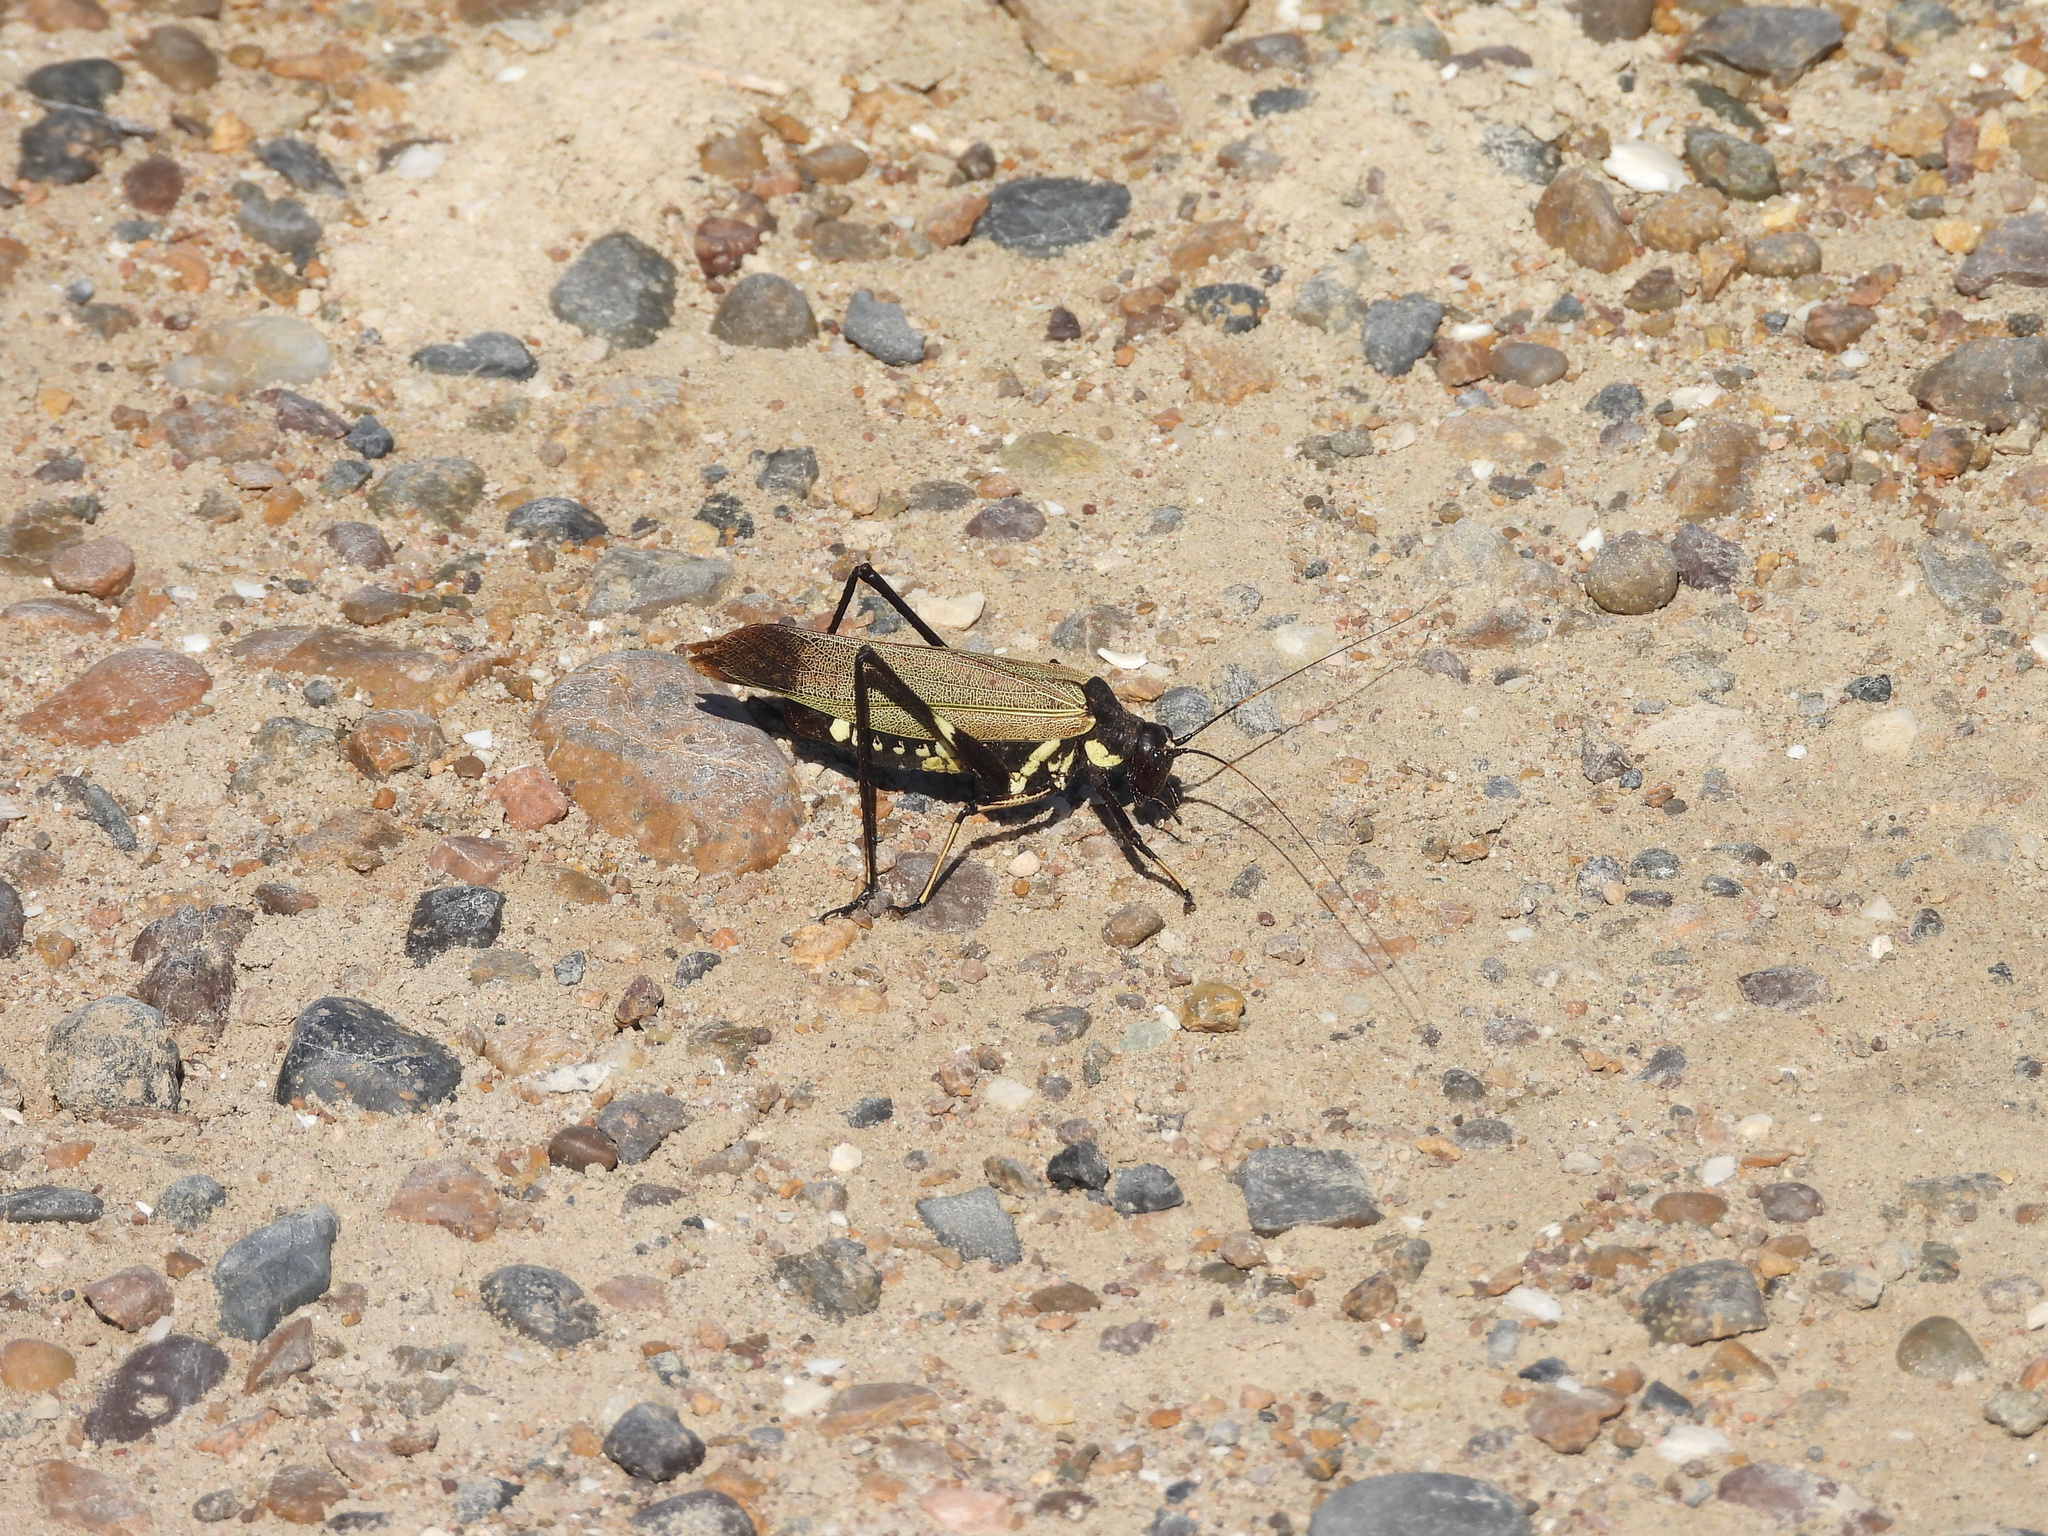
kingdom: Animalia
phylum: Arthropoda
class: Insecta
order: Orthoptera
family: Tettigoniidae
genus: Scaphura
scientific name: Scaphura elegans
